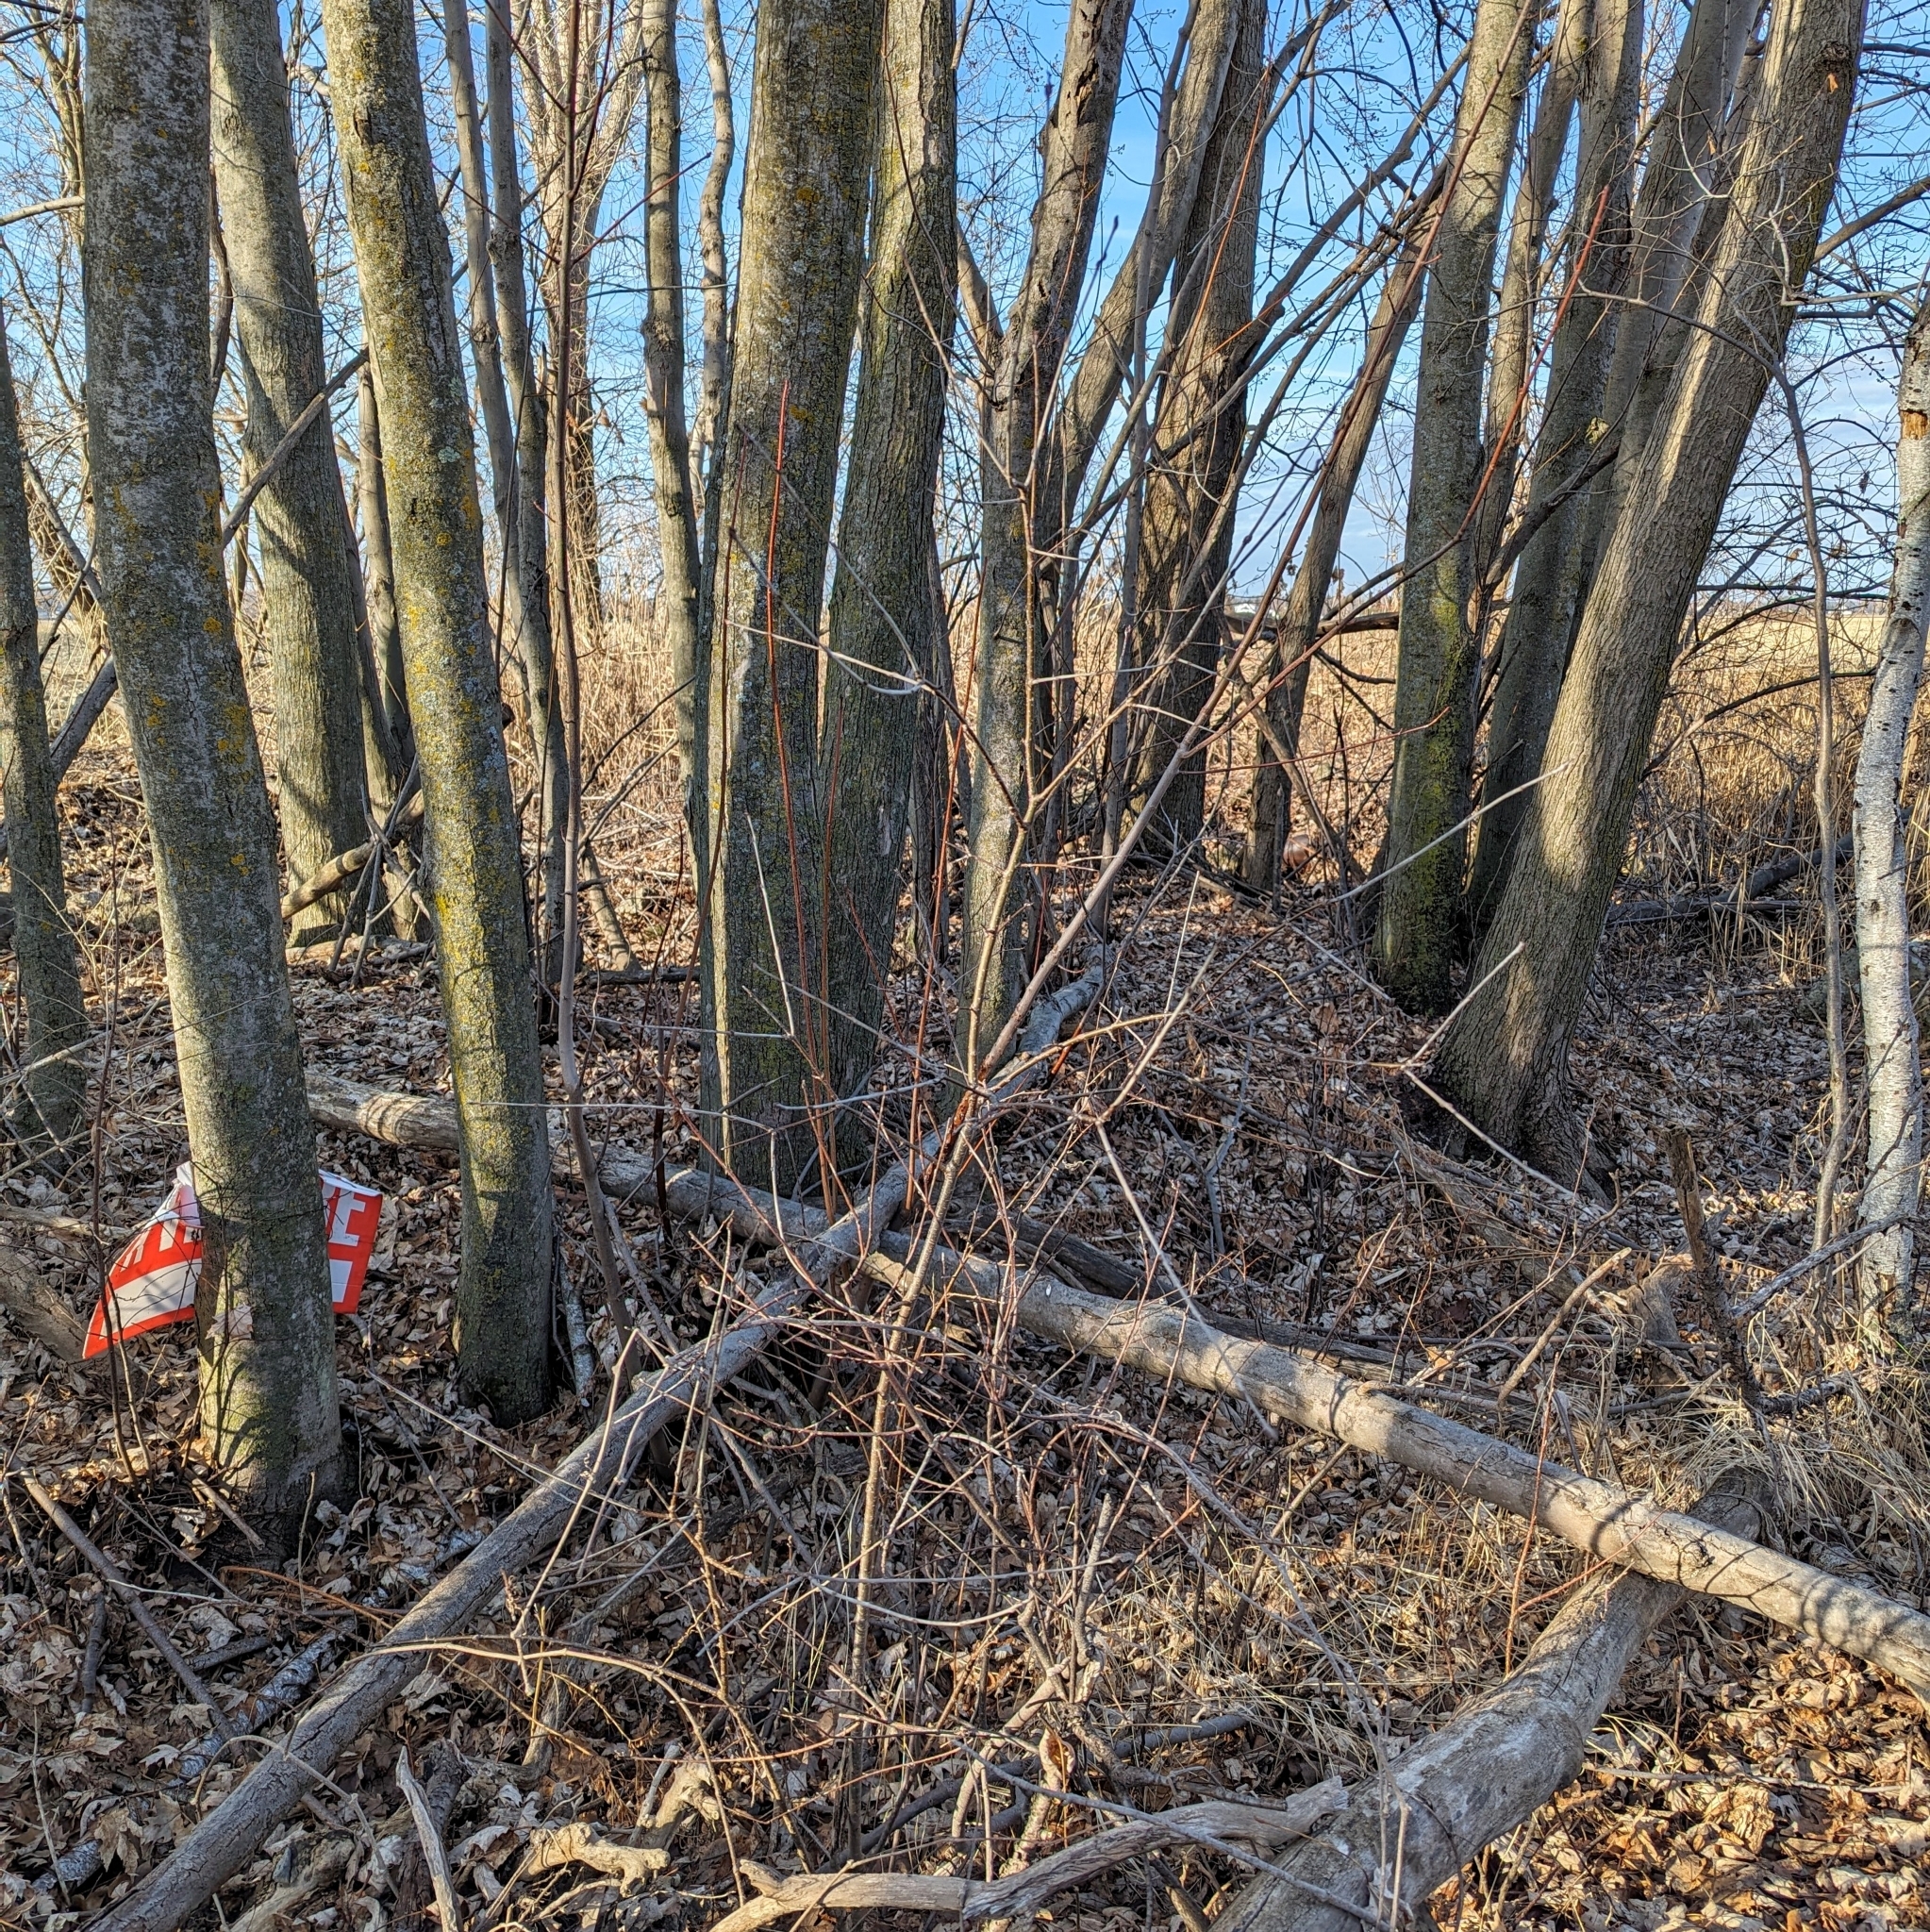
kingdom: Plantae
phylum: Tracheophyta
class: Magnoliopsida
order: Rosales
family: Rhamnaceae
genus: Rhamnus
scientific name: Rhamnus cathartica
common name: Common buckthorn
